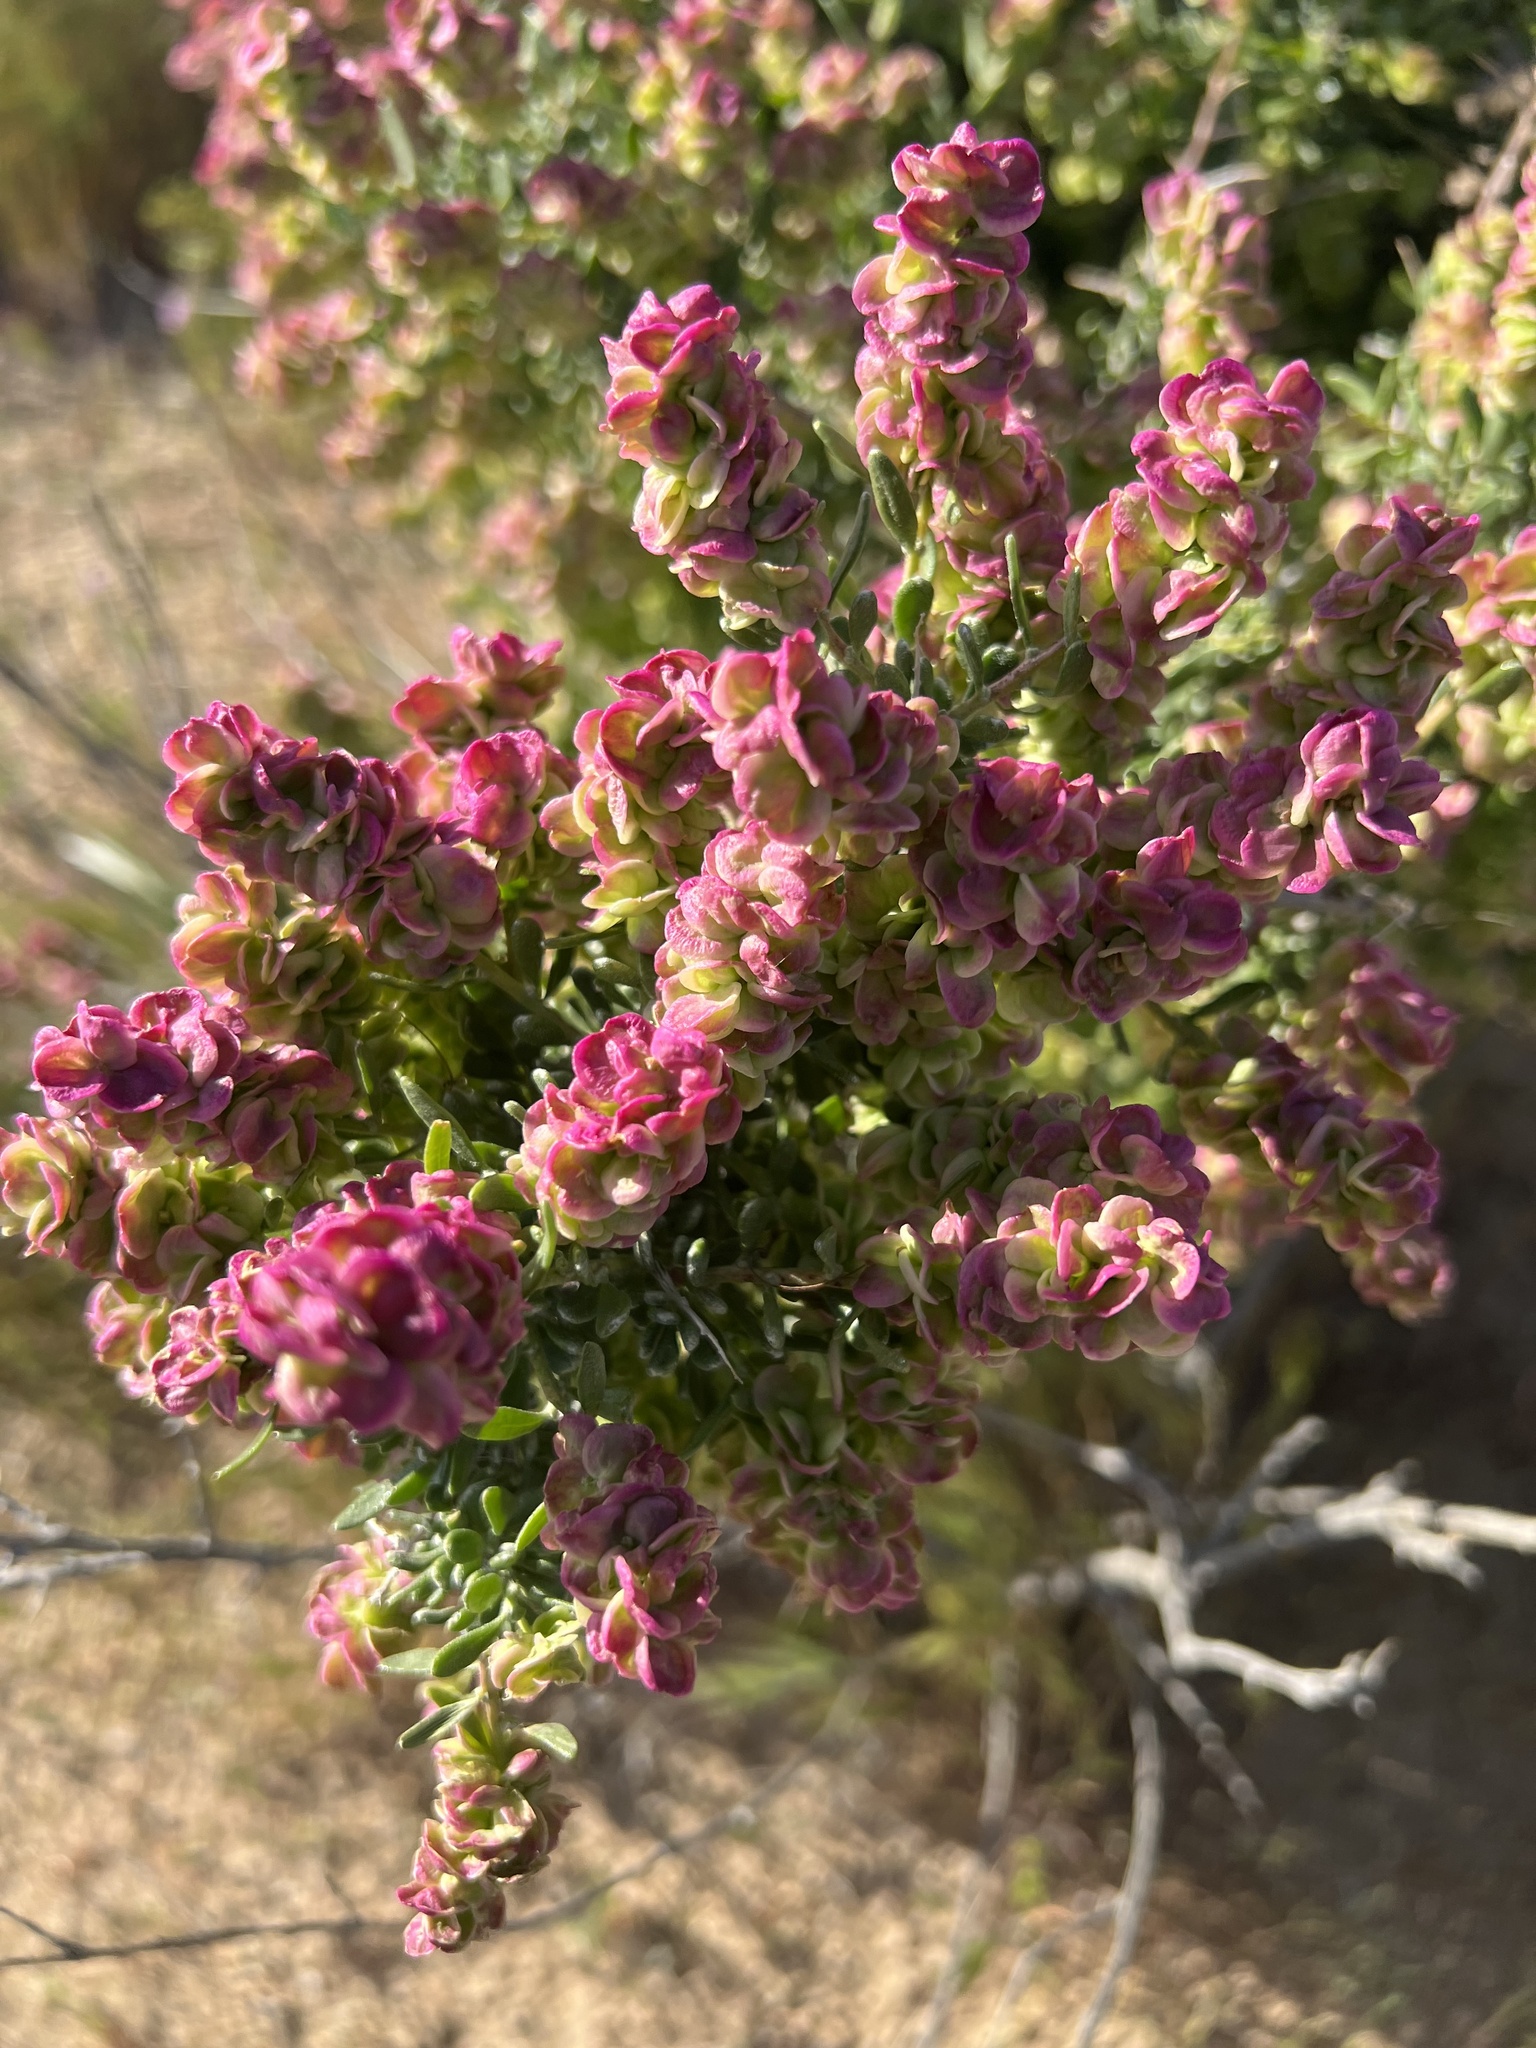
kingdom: Plantae
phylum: Tracheophyta
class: Magnoliopsida
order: Caryophyllales
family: Amaranthaceae
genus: Grayia
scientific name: Grayia spinosa
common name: Spiny hopsage
